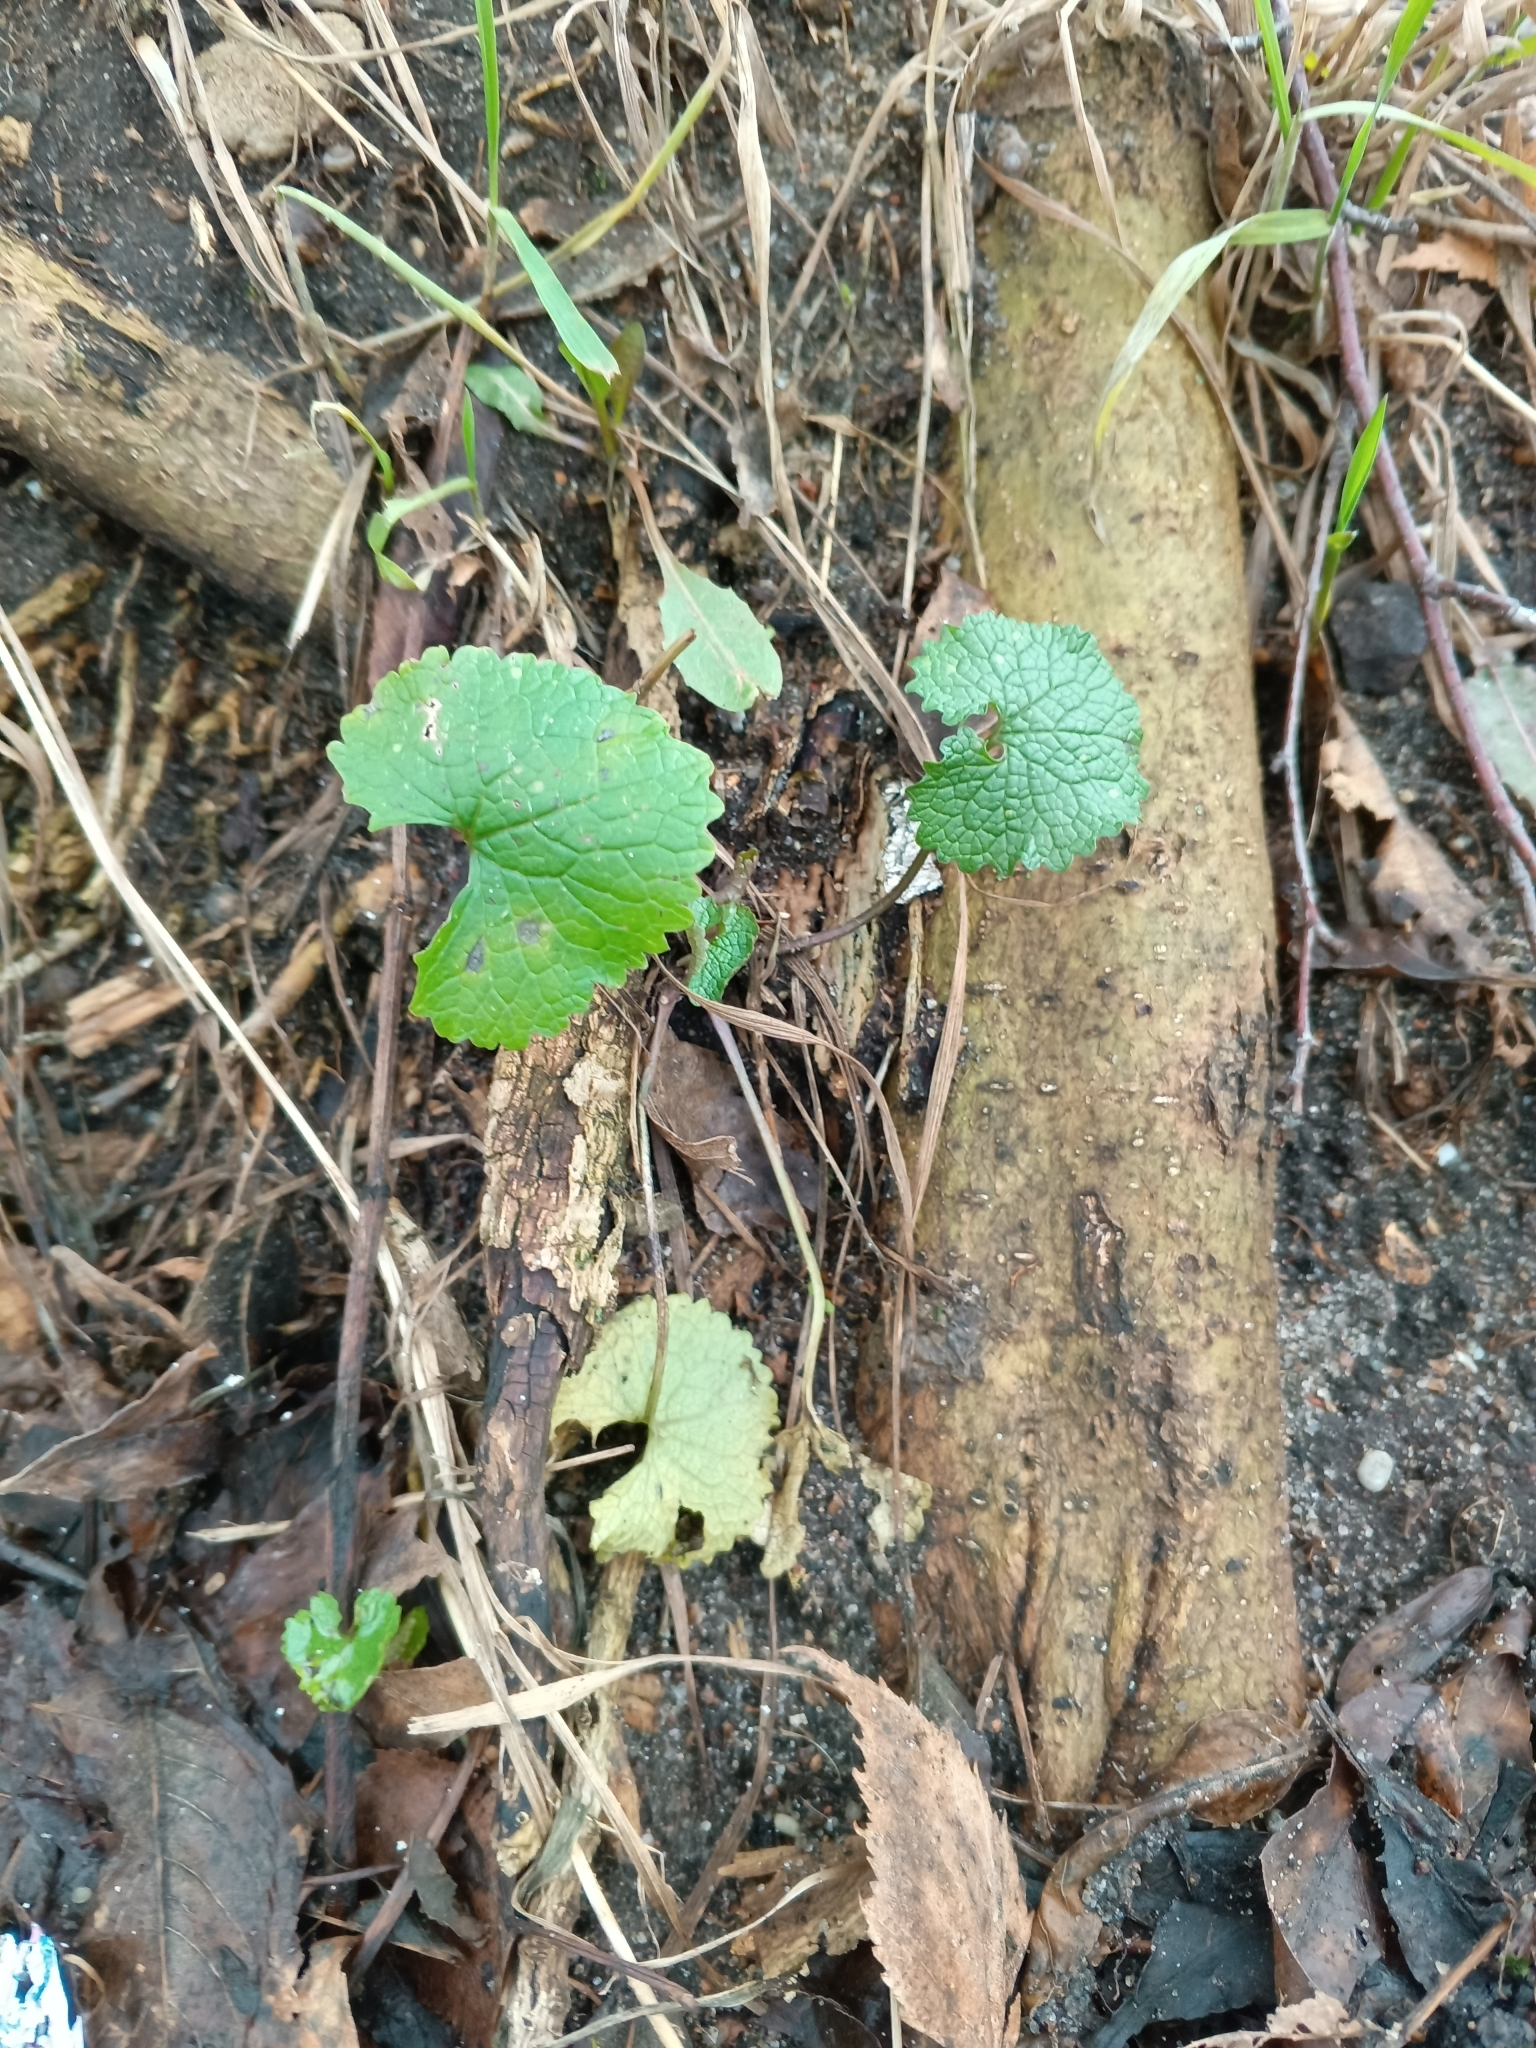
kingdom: Plantae
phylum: Tracheophyta
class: Magnoliopsida
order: Brassicales
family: Brassicaceae
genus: Alliaria
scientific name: Alliaria petiolata
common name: Garlic mustard
